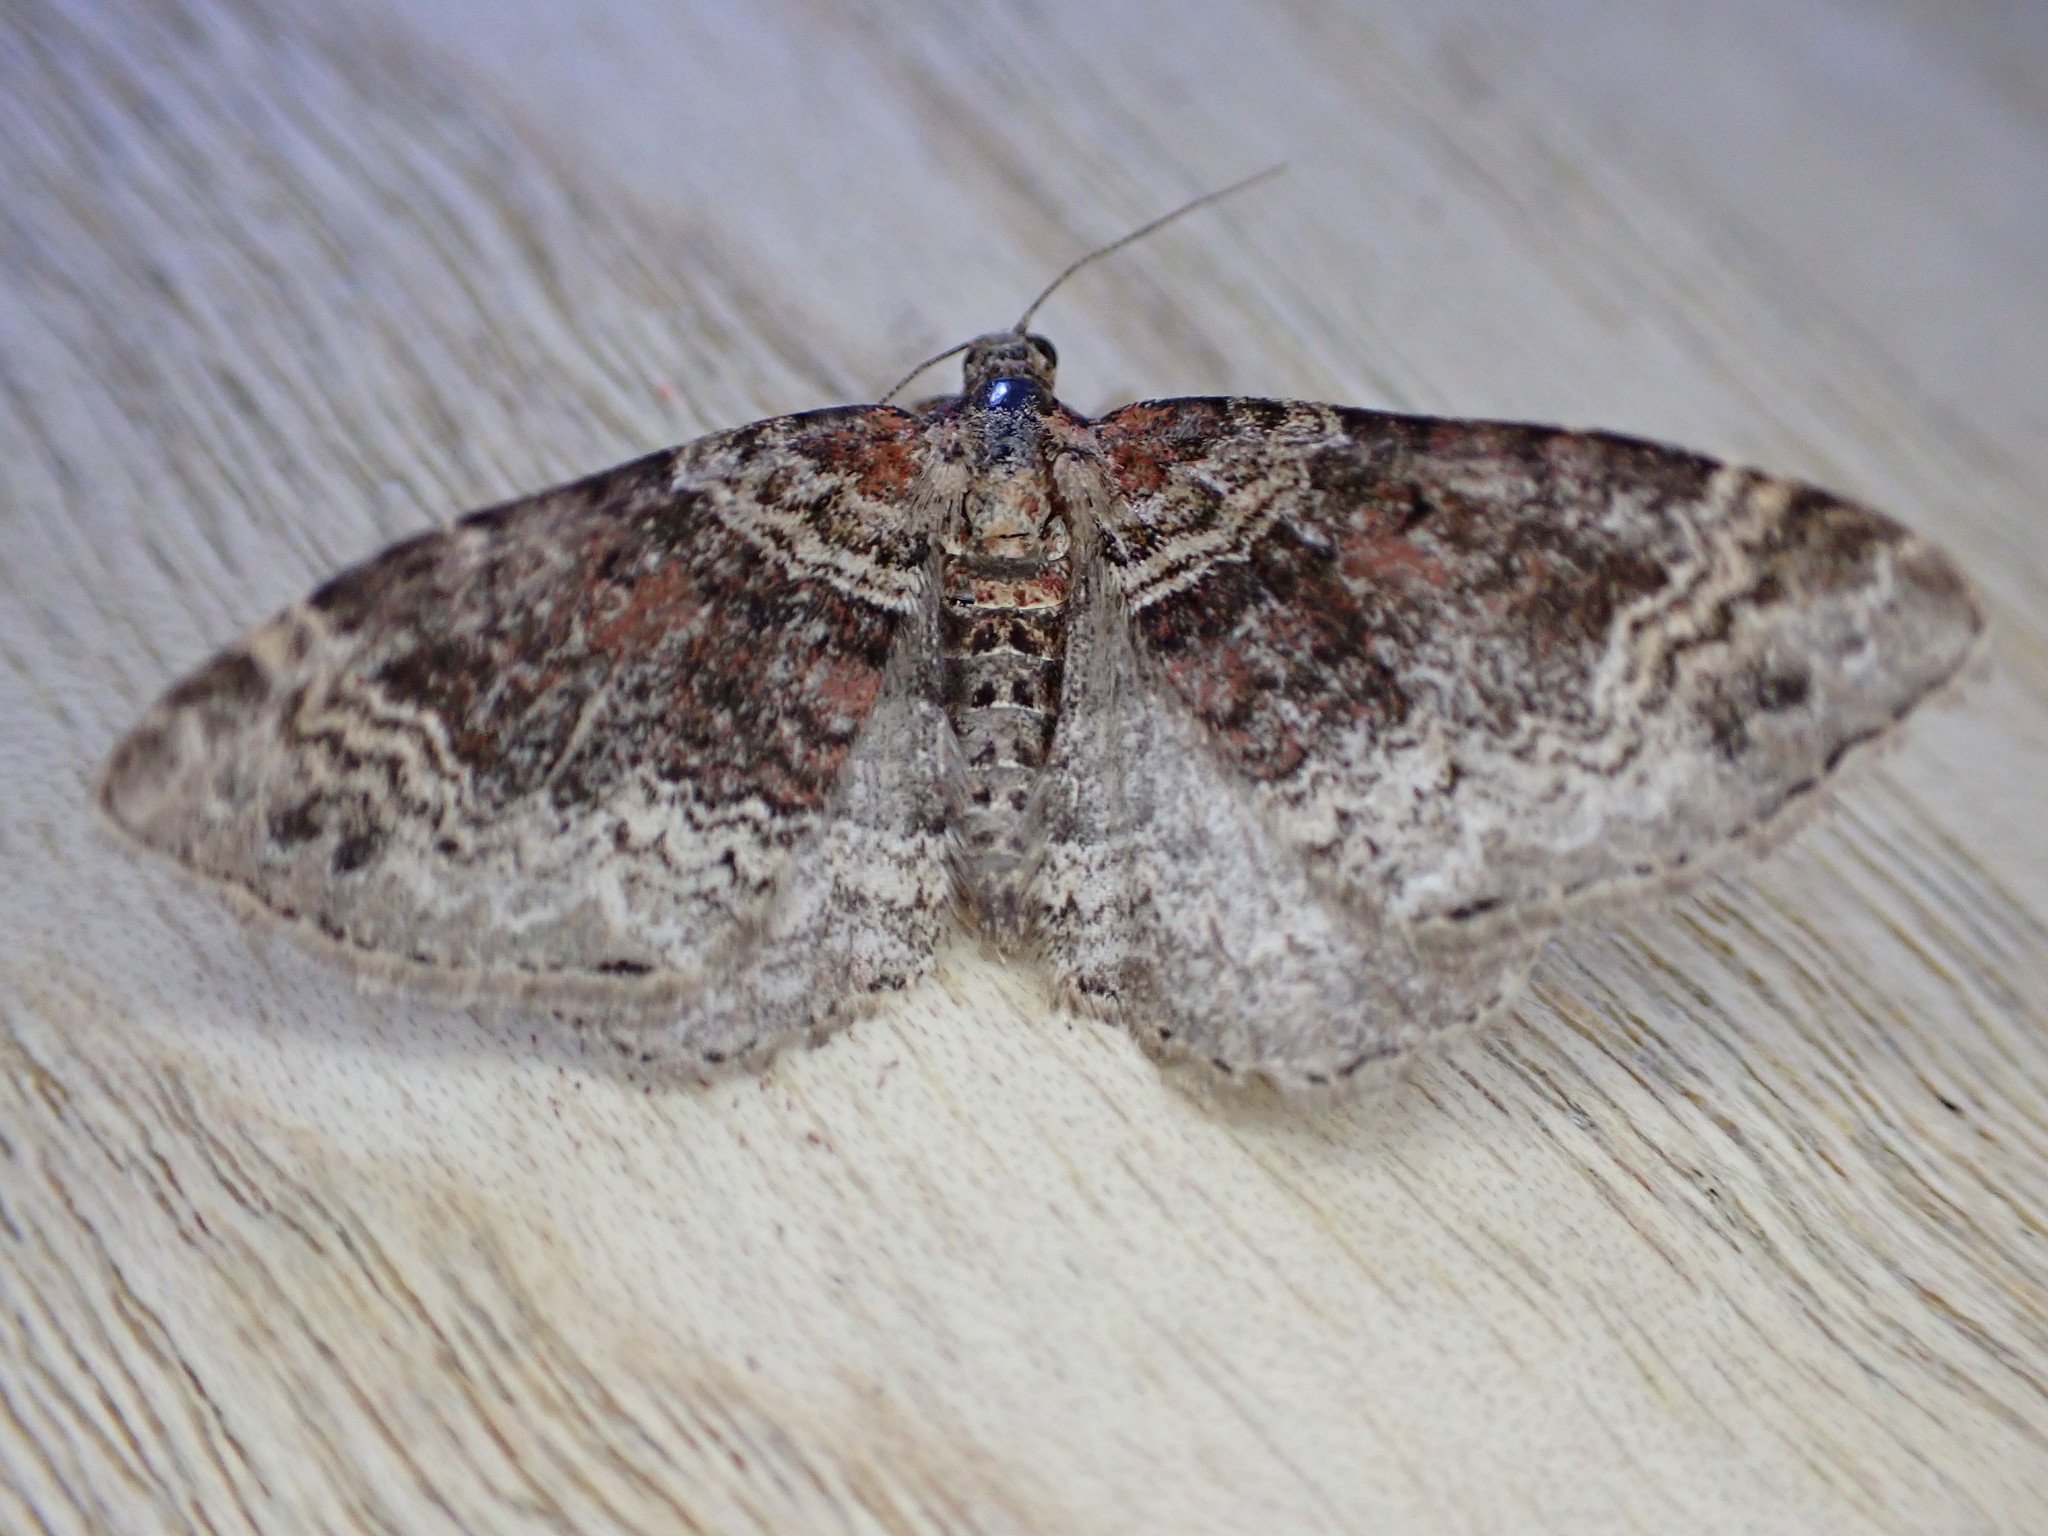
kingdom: Animalia
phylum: Arthropoda
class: Insecta
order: Lepidoptera
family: Geometridae
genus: Xanthorhoe
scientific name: Xanthorhoe ferrugata
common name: Dark-barred twin-spot carpet
